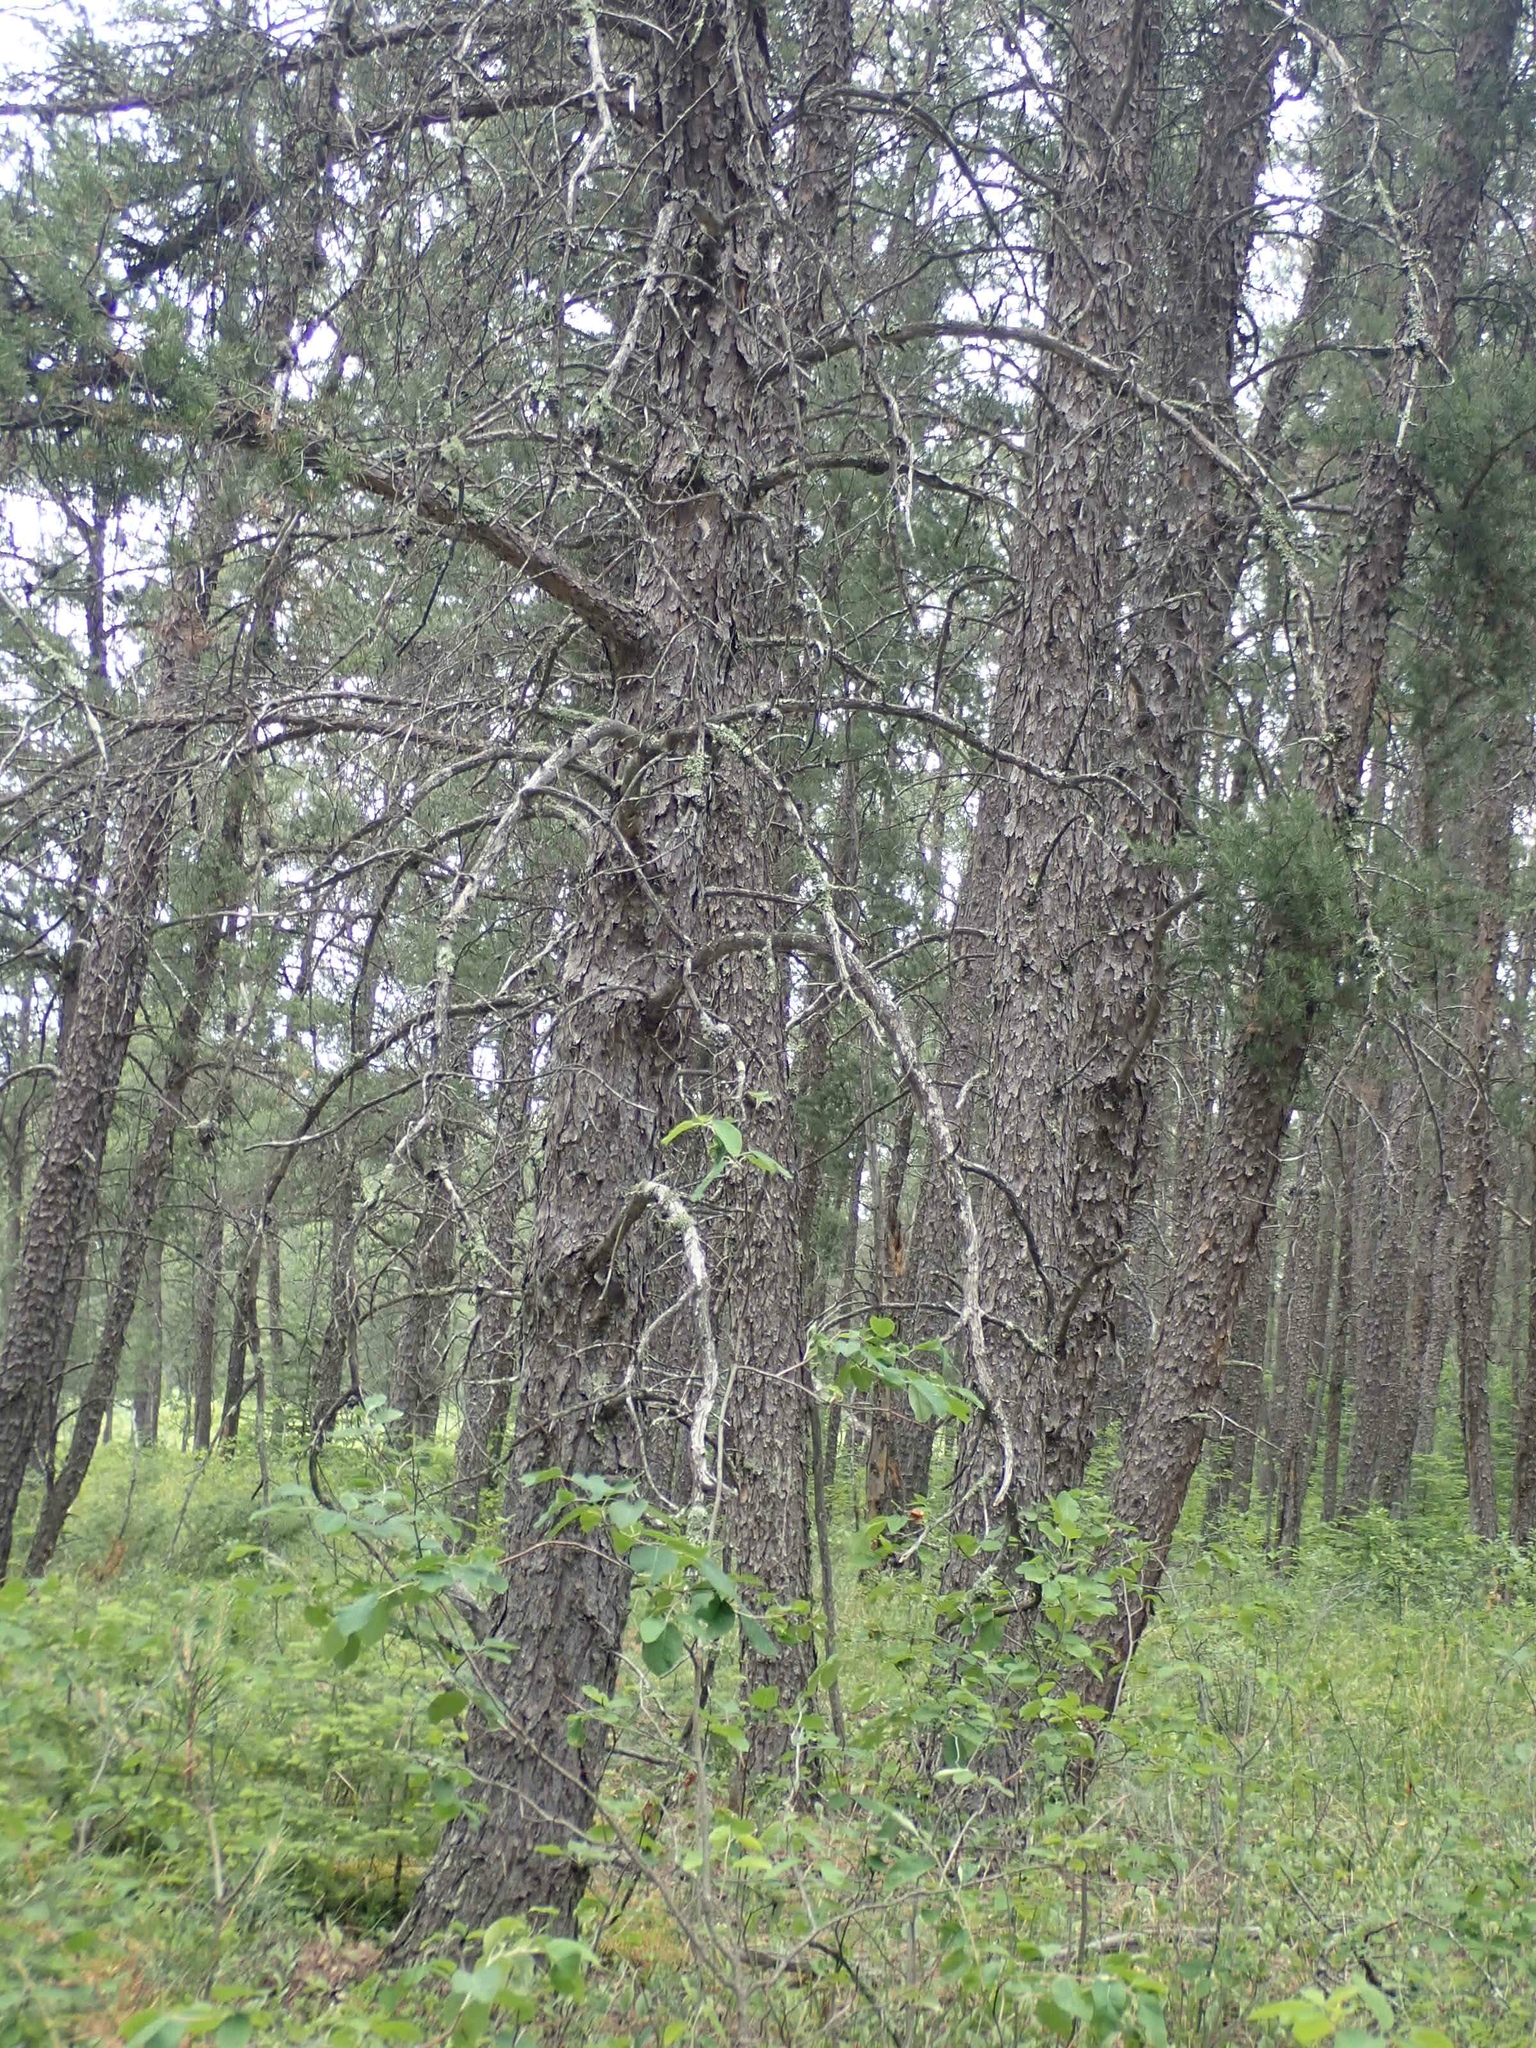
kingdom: Plantae
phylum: Tracheophyta
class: Pinopsida
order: Pinales
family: Pinaceae
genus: Pinus
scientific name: Pinus banksiana
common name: Jack pine
